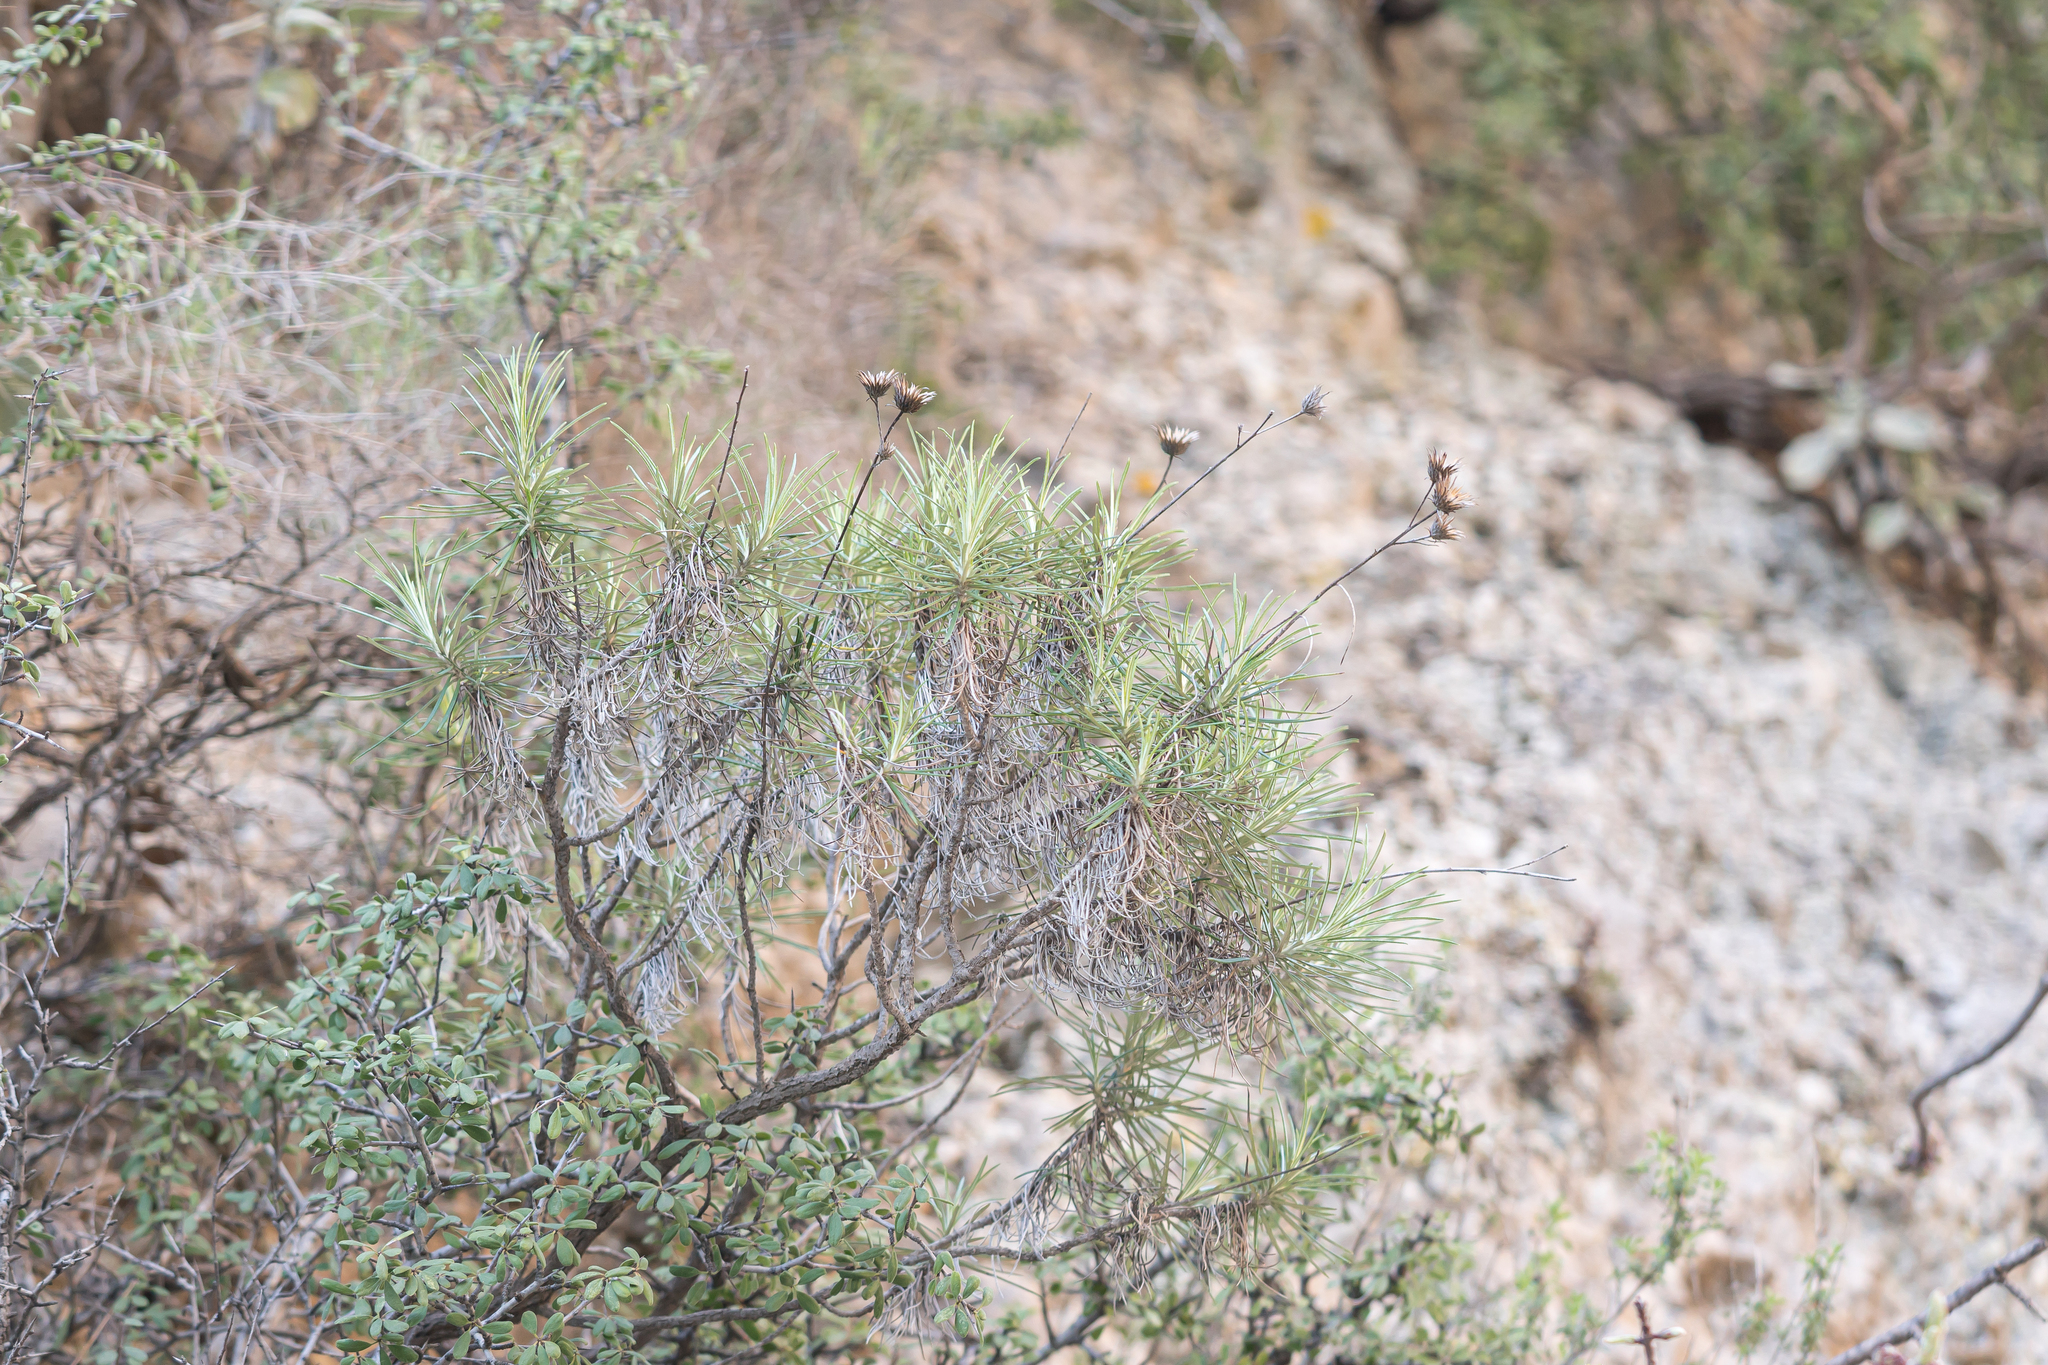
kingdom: Plantae
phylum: Tracheophyta
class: Magnoliopsida
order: Asterales
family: Asteraceae
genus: Ptilostemon
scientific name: Ptilostemon chamaepeuce
